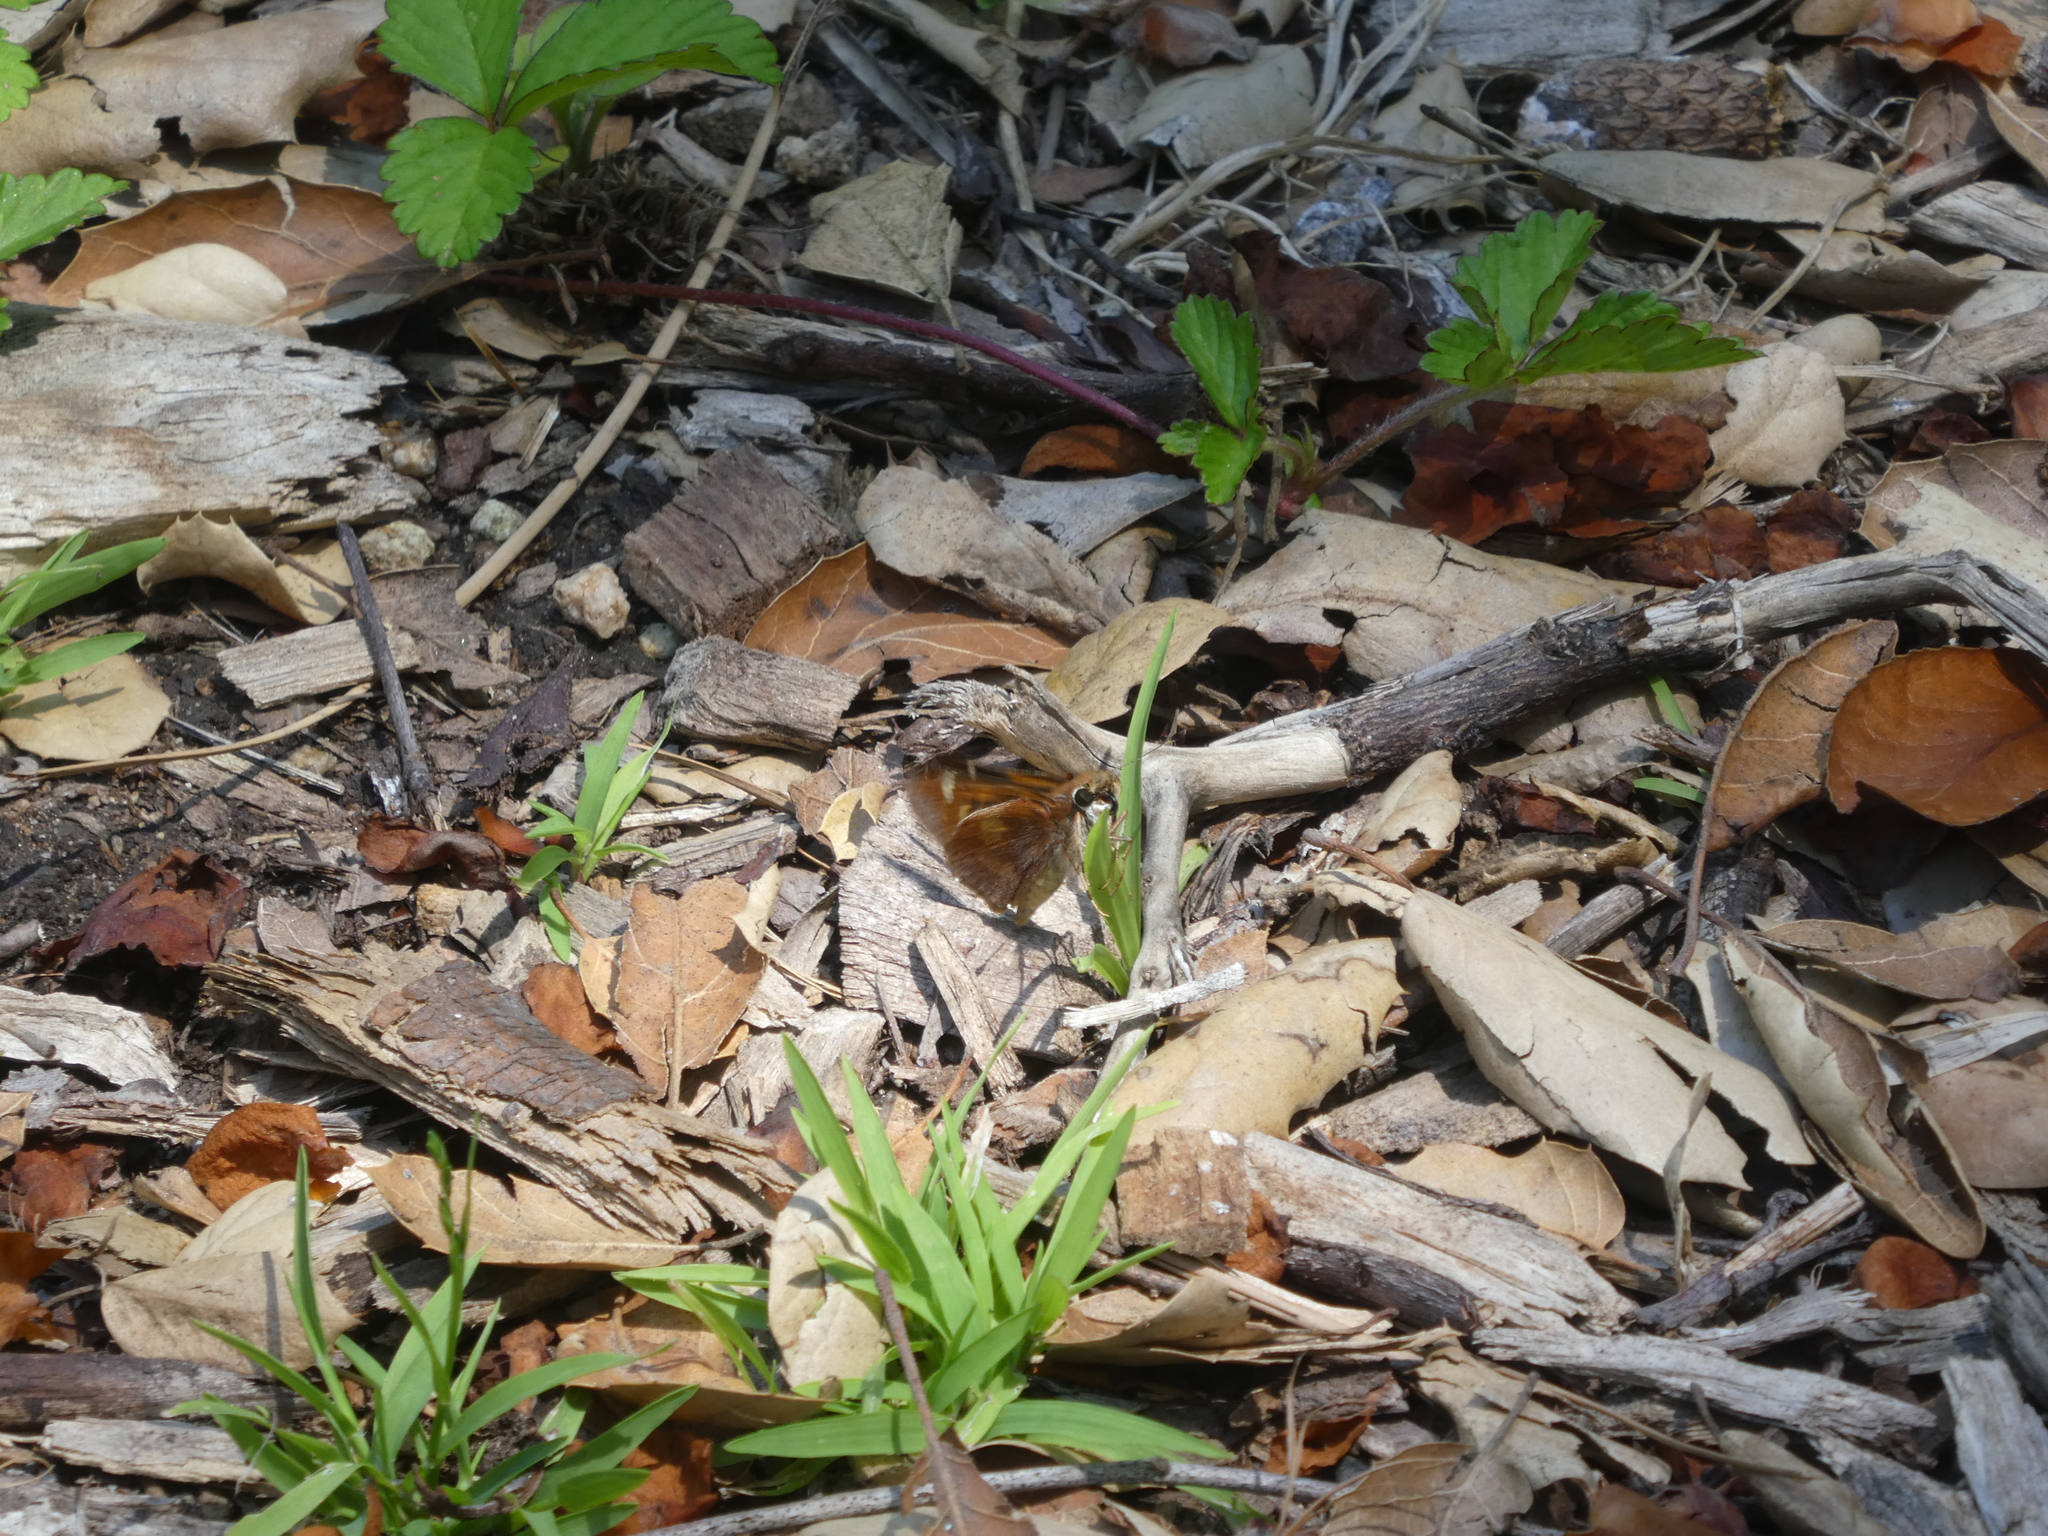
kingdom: Animalia
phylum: Arthropoda
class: Insecta
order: Lepidoptera
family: Hesperiidae
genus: Lon
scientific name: Lon melane
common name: Umber skipper
